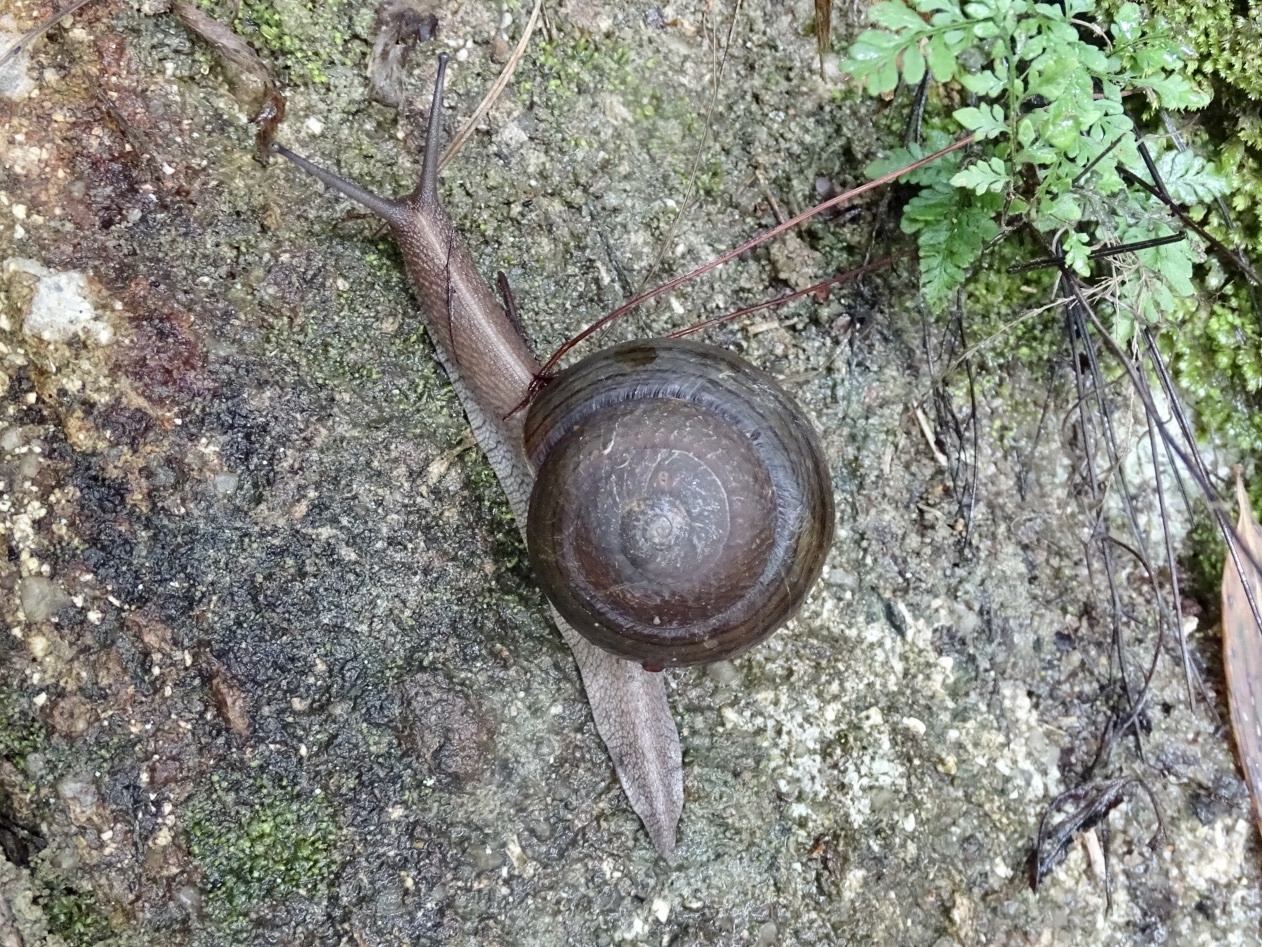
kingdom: Animalia
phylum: Mollusca
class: Gastropoda
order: Stylommatophora
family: Camaenidae
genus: Camaena
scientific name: Camaena cicatricosa
